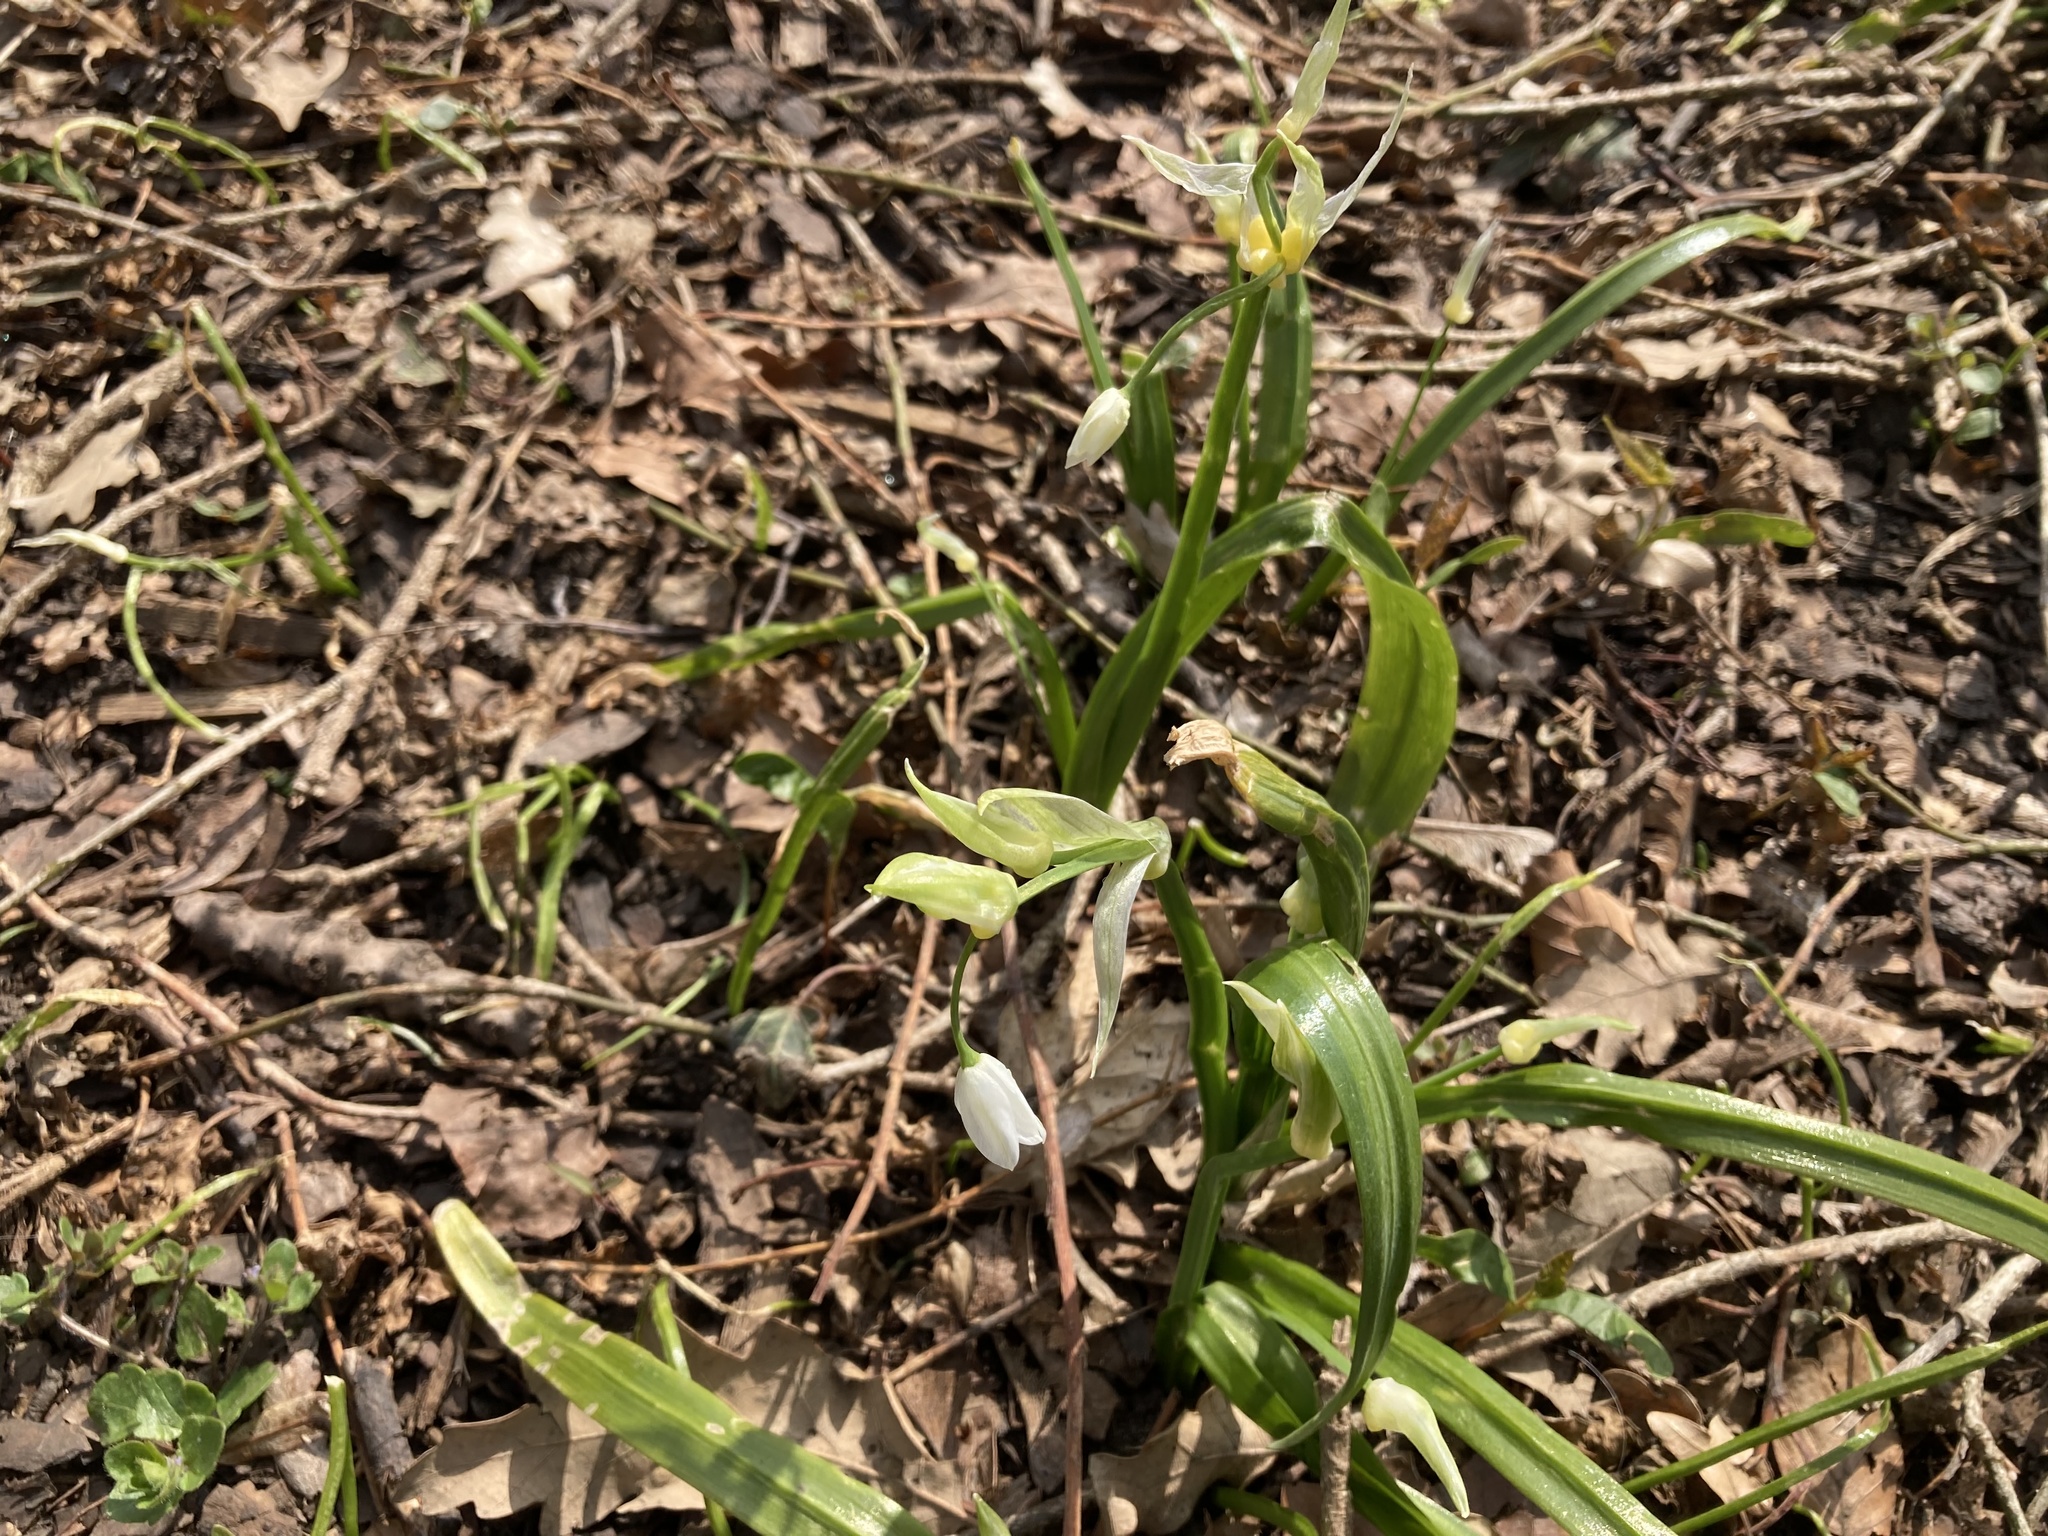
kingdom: Plantae
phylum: Tracheophyta
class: Liliopsida
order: Asparagales
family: Amaryllidaceae
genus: Allium
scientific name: Allium paradoxum
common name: Few-flowered garlic
